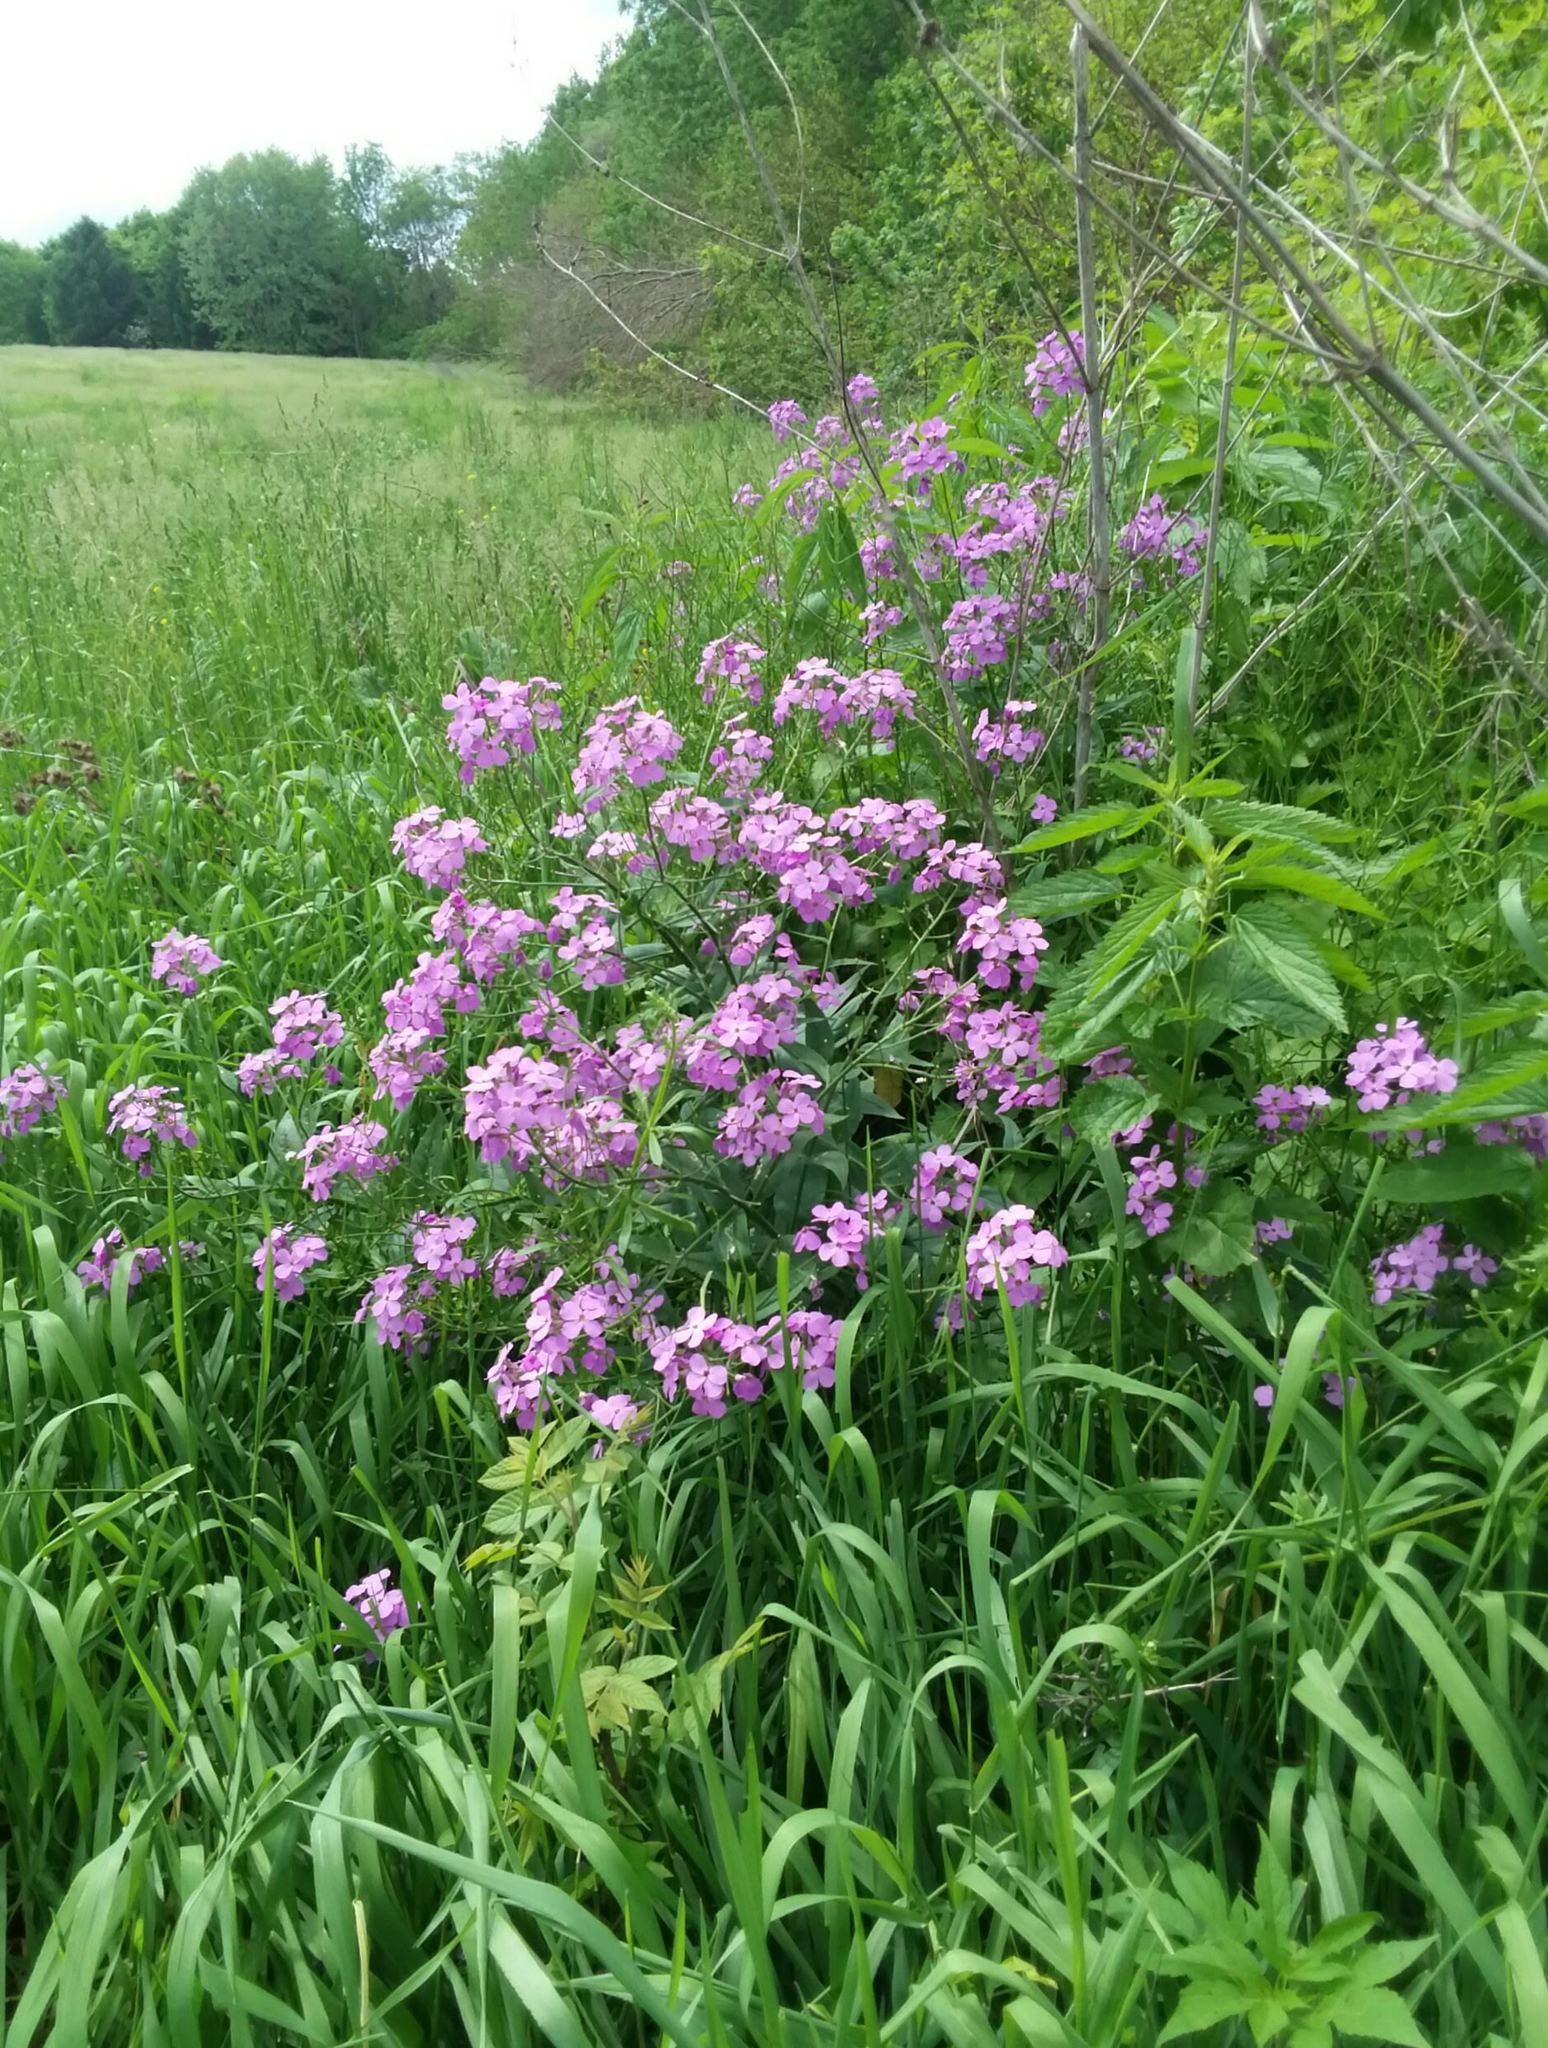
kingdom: Plantae
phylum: Tracheophyta
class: Magnoliopsida
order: Brassicales
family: Brassicaceae
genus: Hesperis
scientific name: Hesperis matronalis
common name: Dame's-violet
